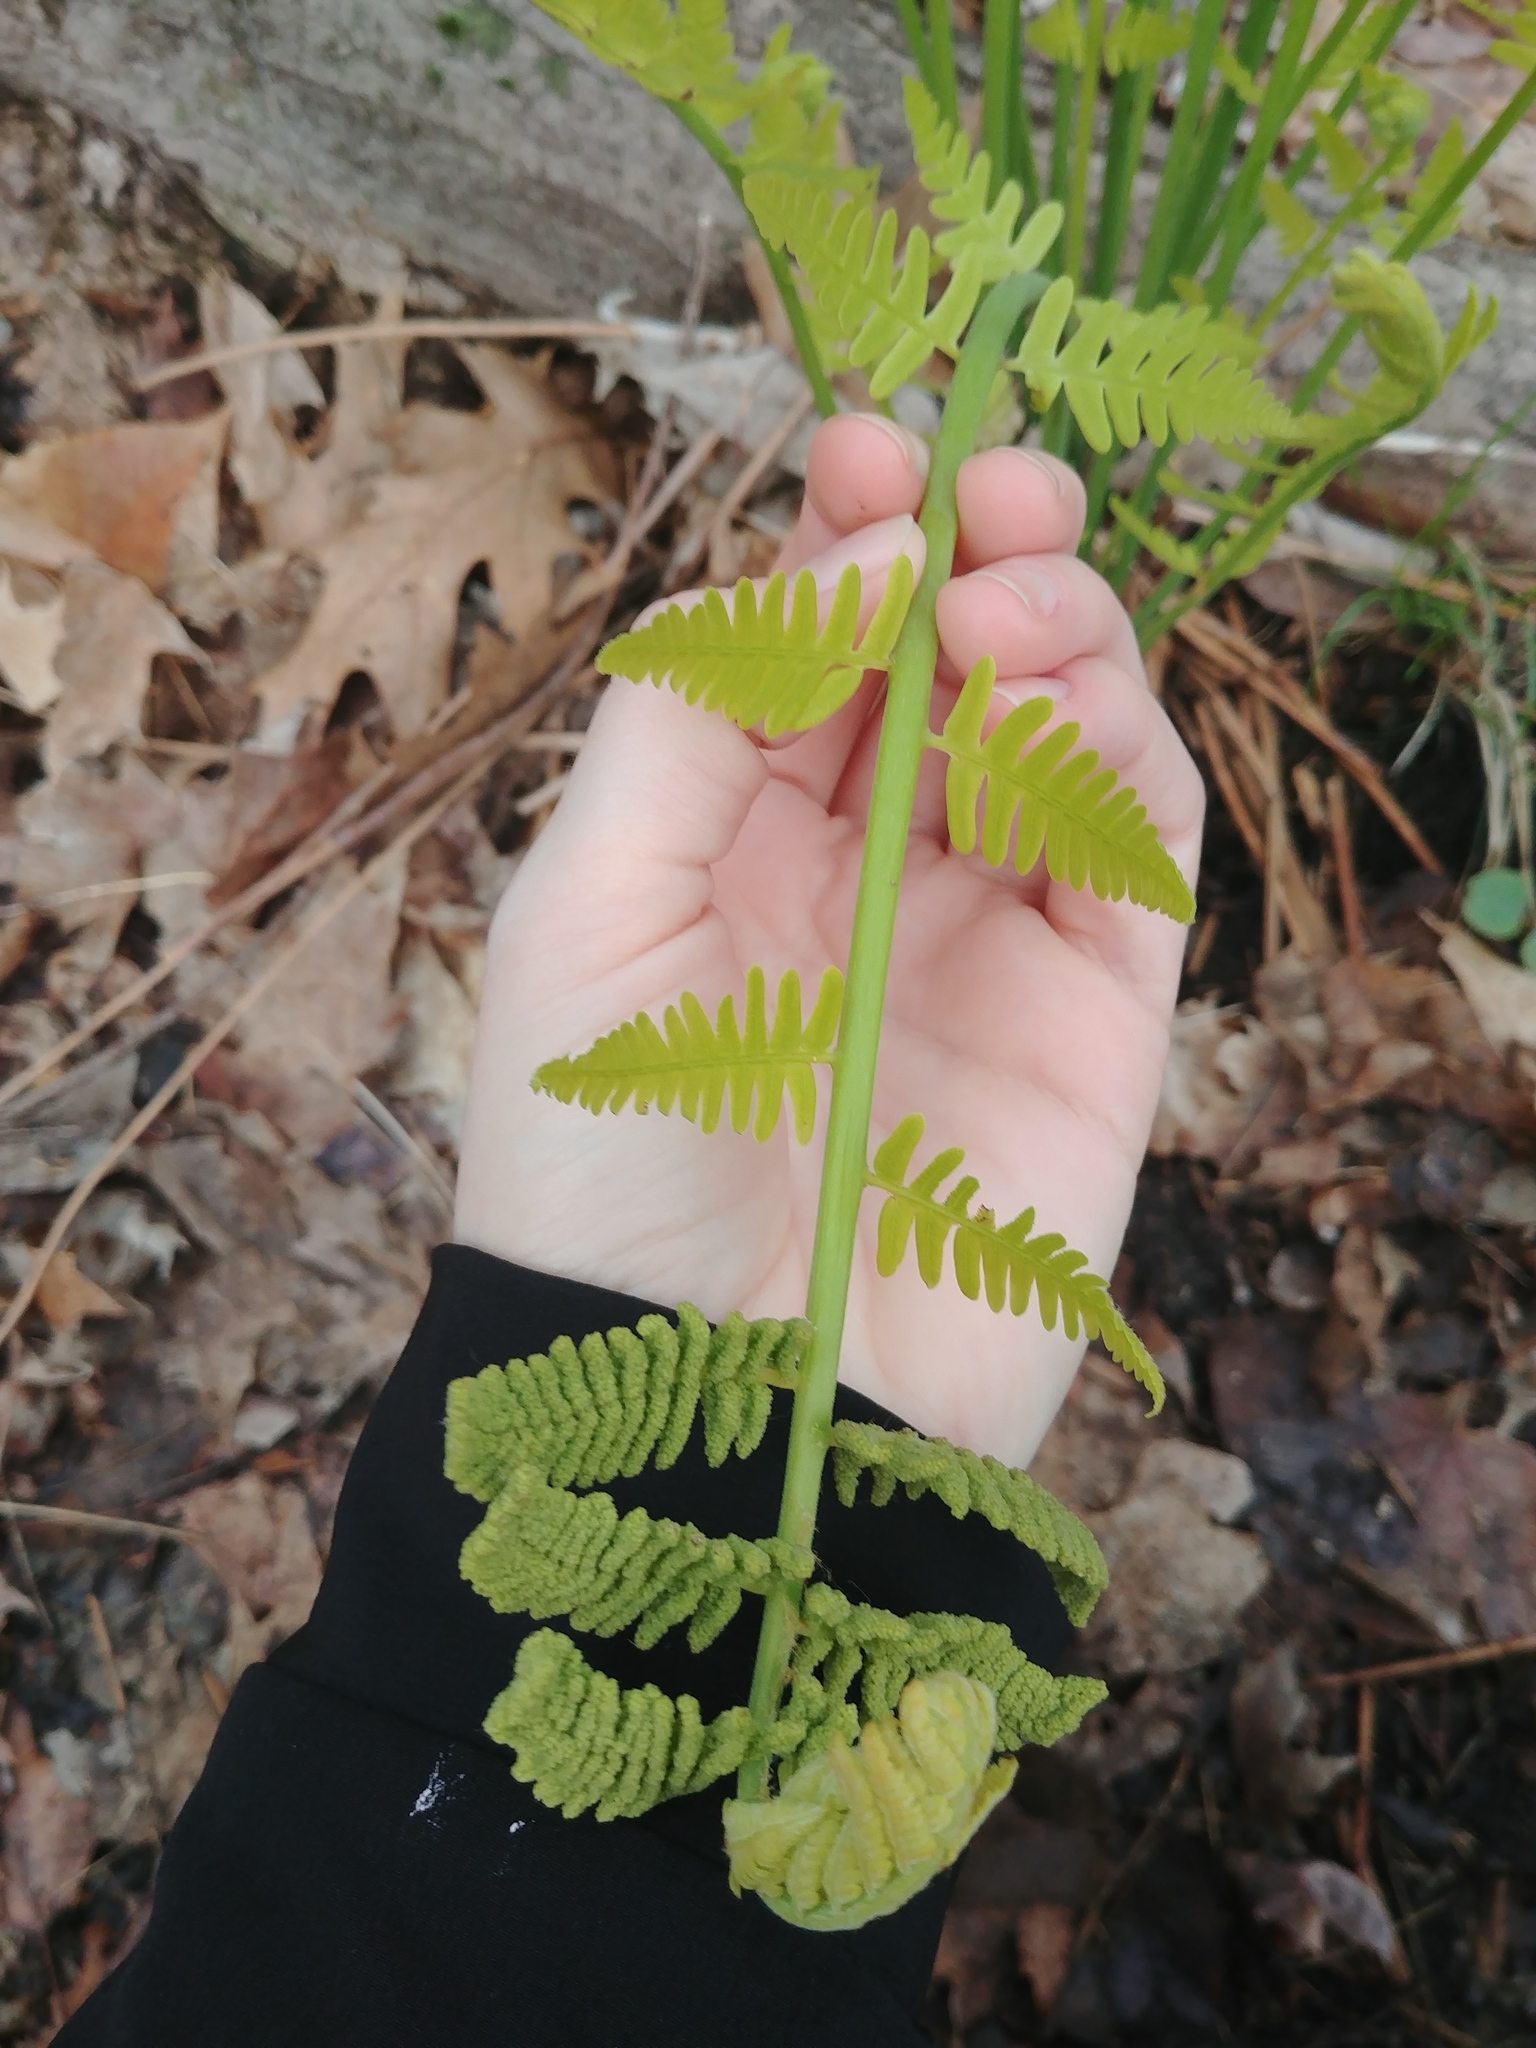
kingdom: Plantae
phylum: Tracheophyta
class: Polypodiopsida
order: Osmundales
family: Osmundaceae
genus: Claytosmunda
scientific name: Claytosmunda claytoniana
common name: Clayton's fern
